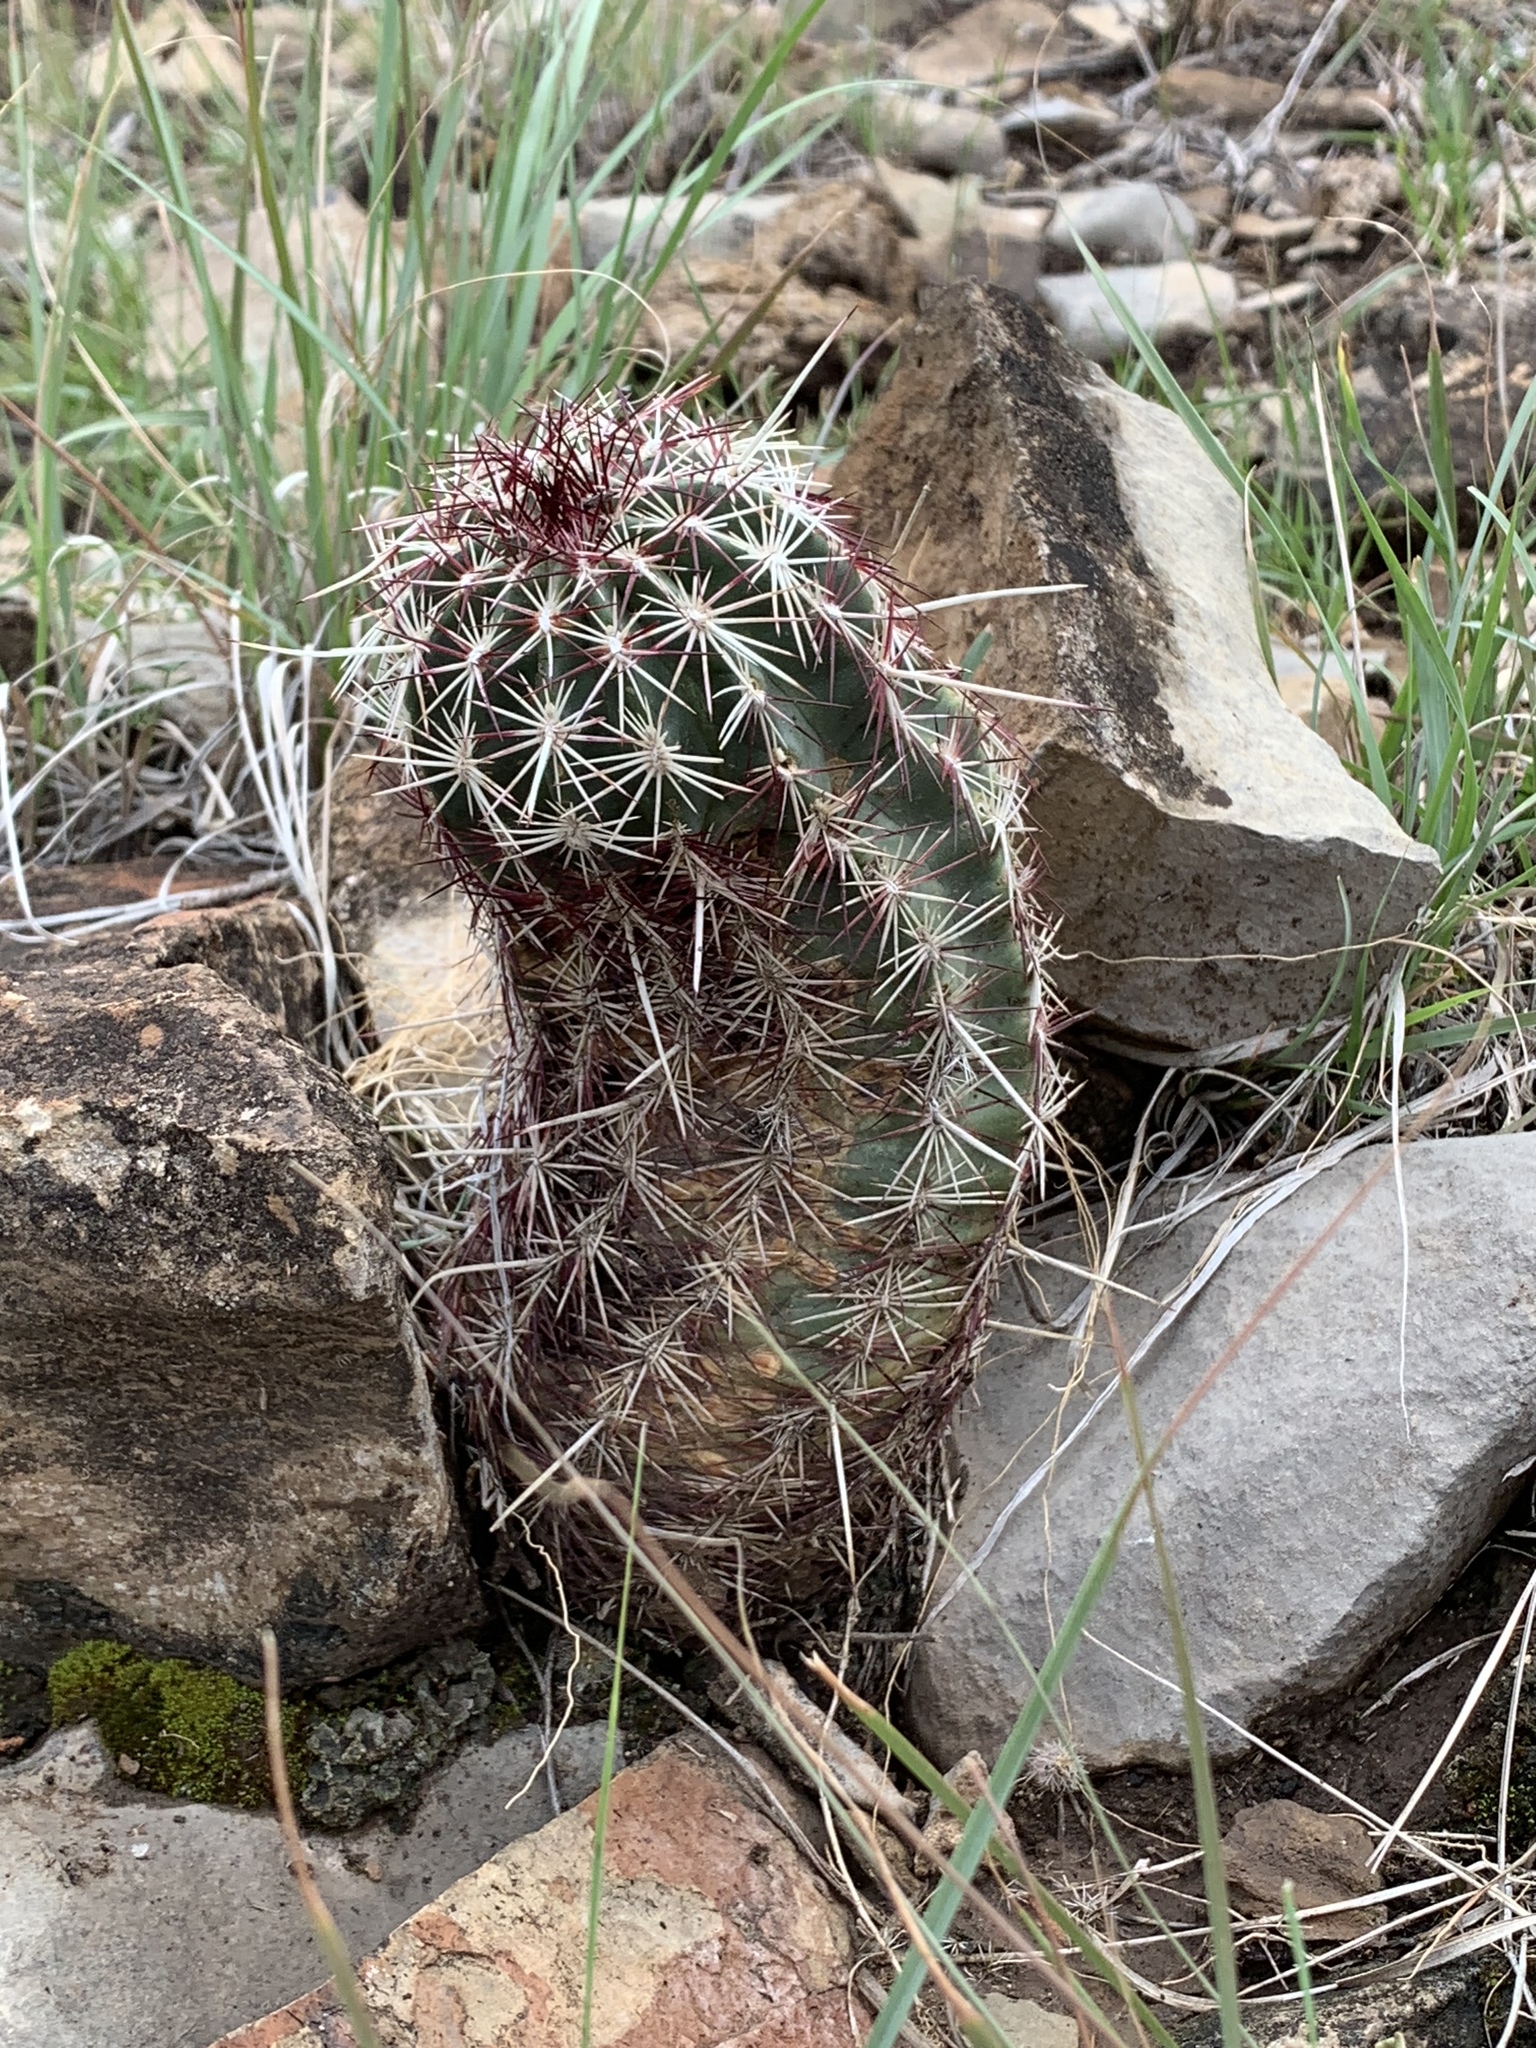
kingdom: Plantae
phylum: Tracheophyta
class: Magnoliopsida
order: Caryophyllales
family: Cactaceae
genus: Echinocereus
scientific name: Echinocereus viridiflorus
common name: Nylon hedgehog cactus
